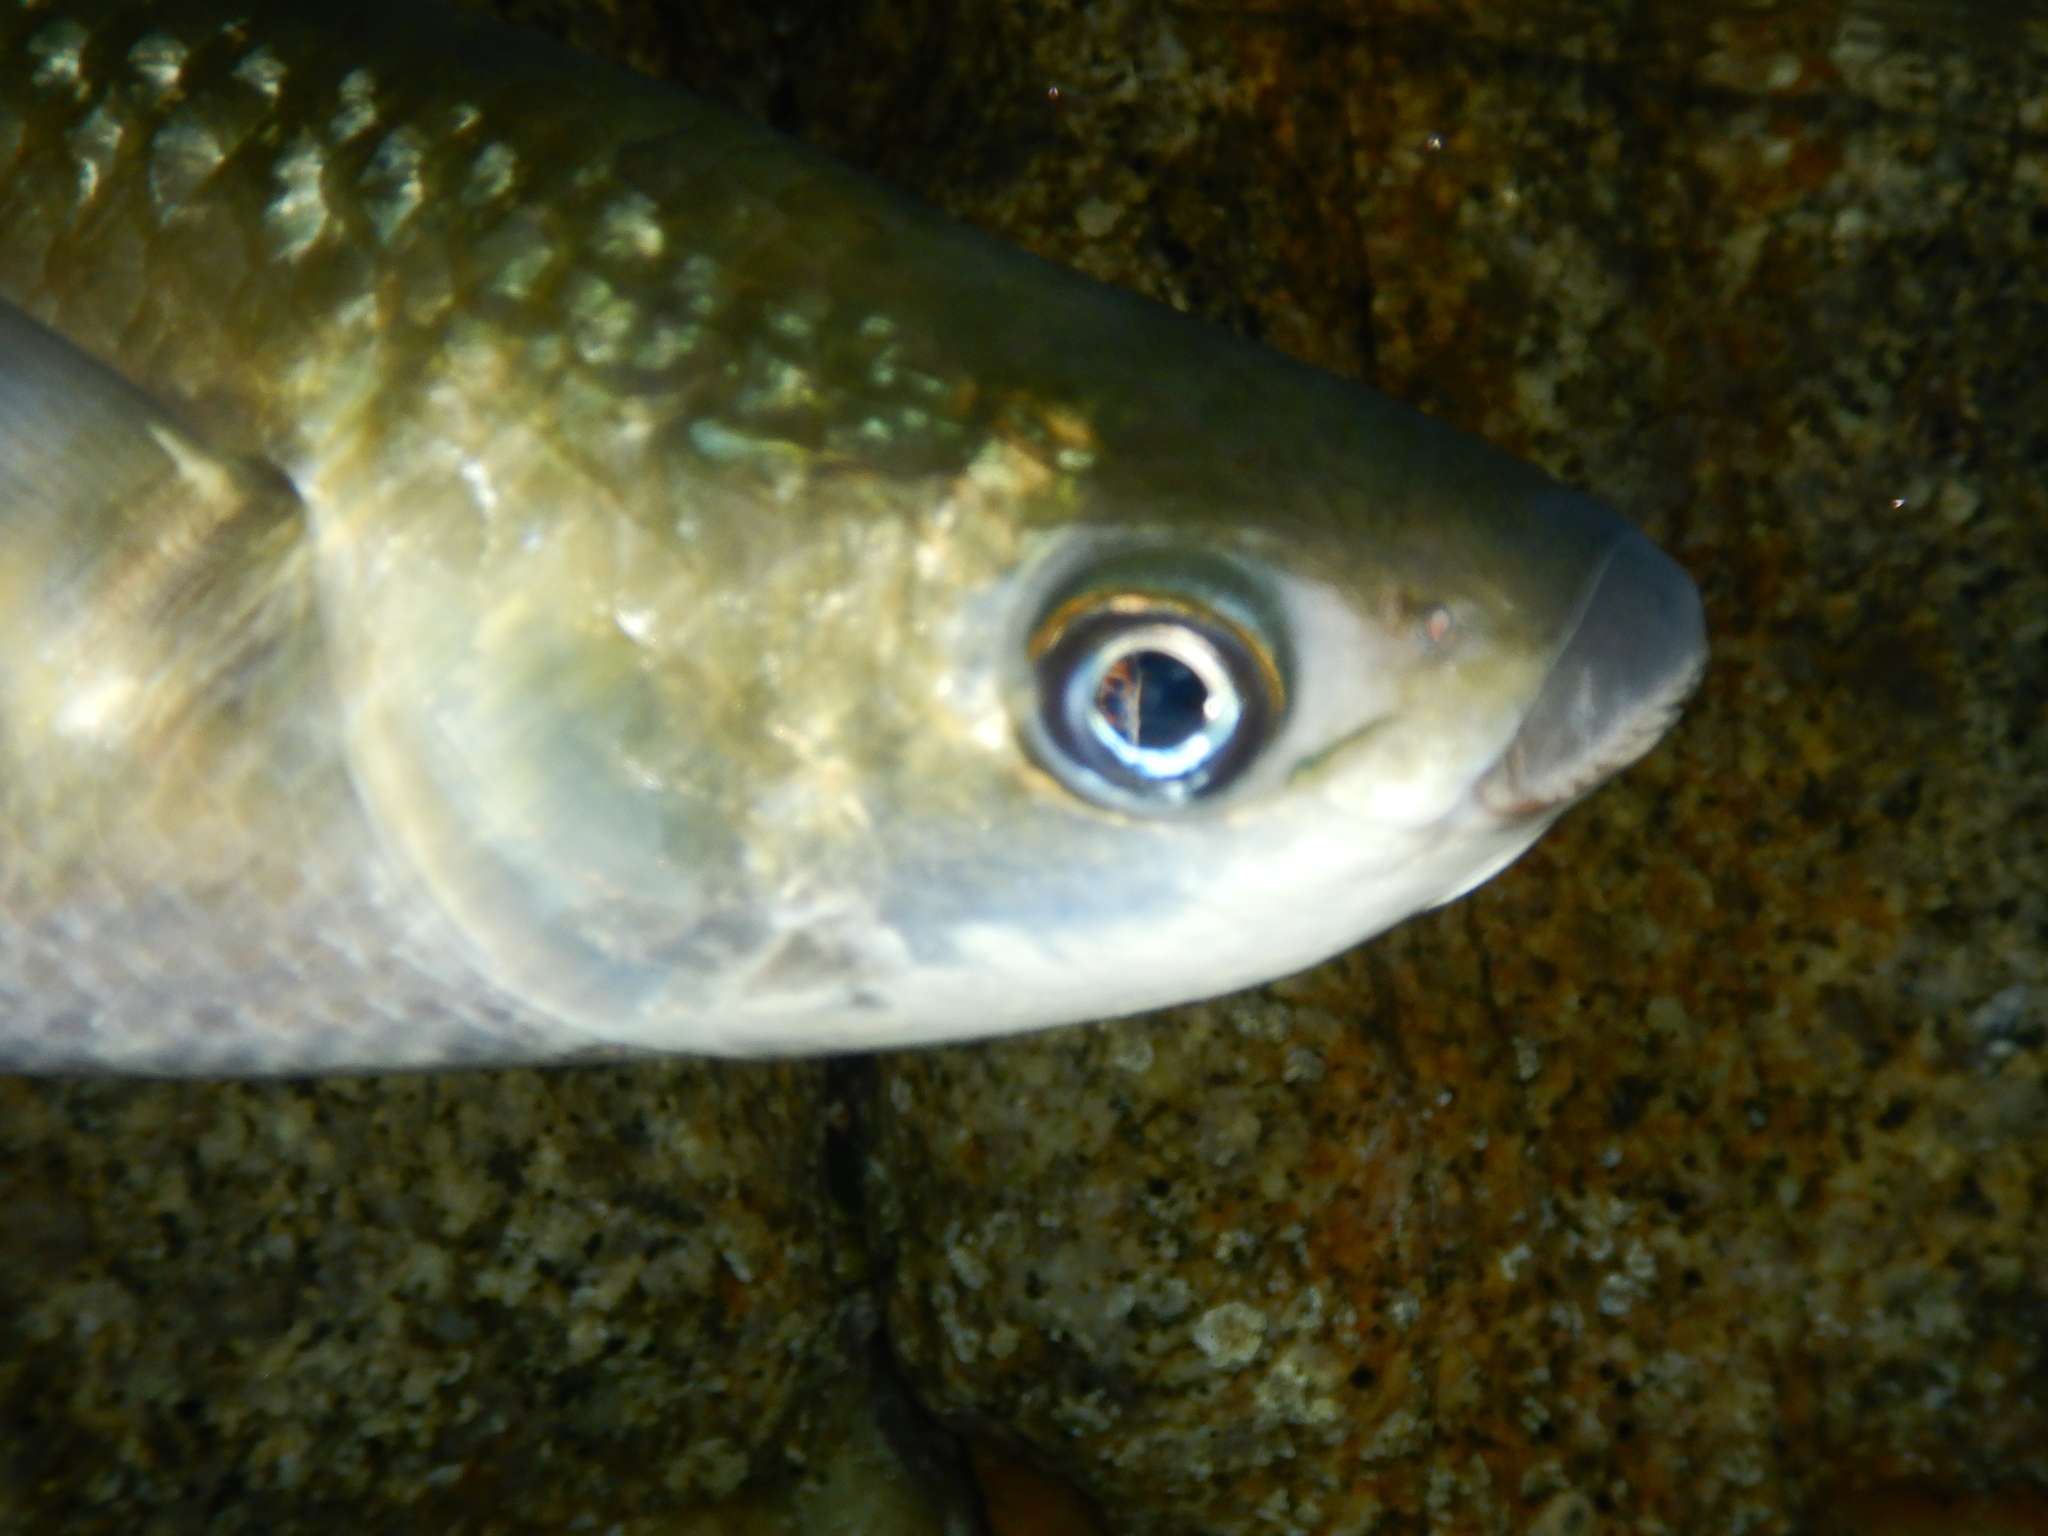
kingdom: Animalia
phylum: Chordata
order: Mugiliformes
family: Mugilidae
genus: Chelon
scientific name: Chelon labrosus
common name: Thick-lipped mullet
